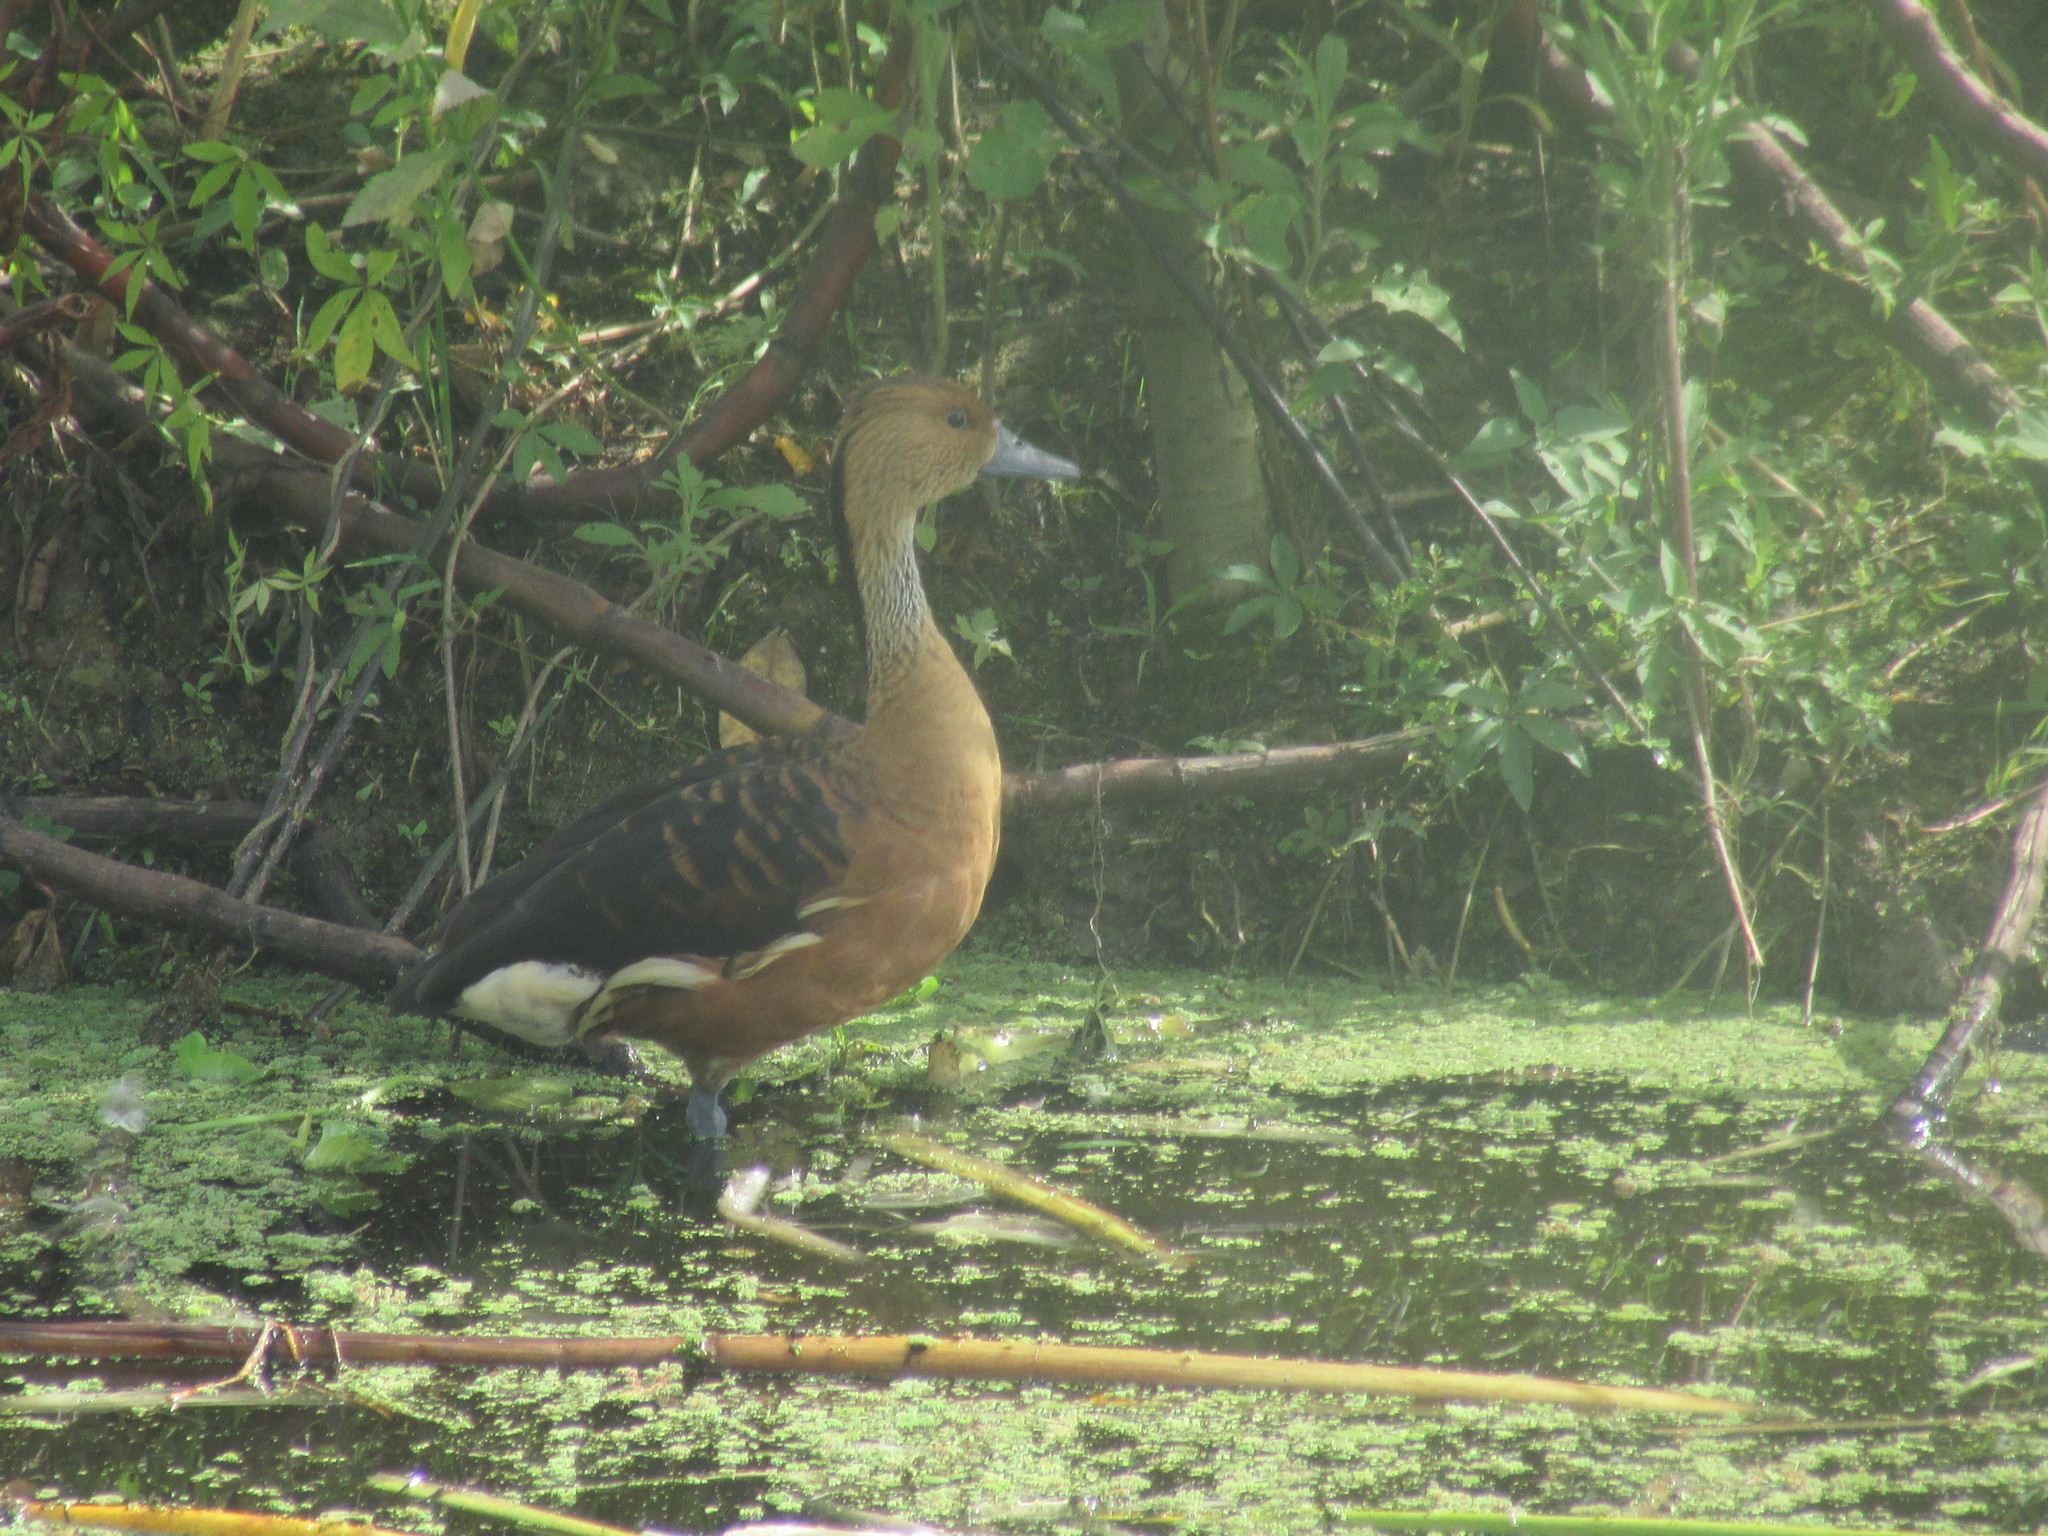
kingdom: Animalia
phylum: Chordata
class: Aves
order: Anseriformes
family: Anatidae
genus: Dendrocygna
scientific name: Dendrocygna bicolor
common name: Fulvous whistling duck
